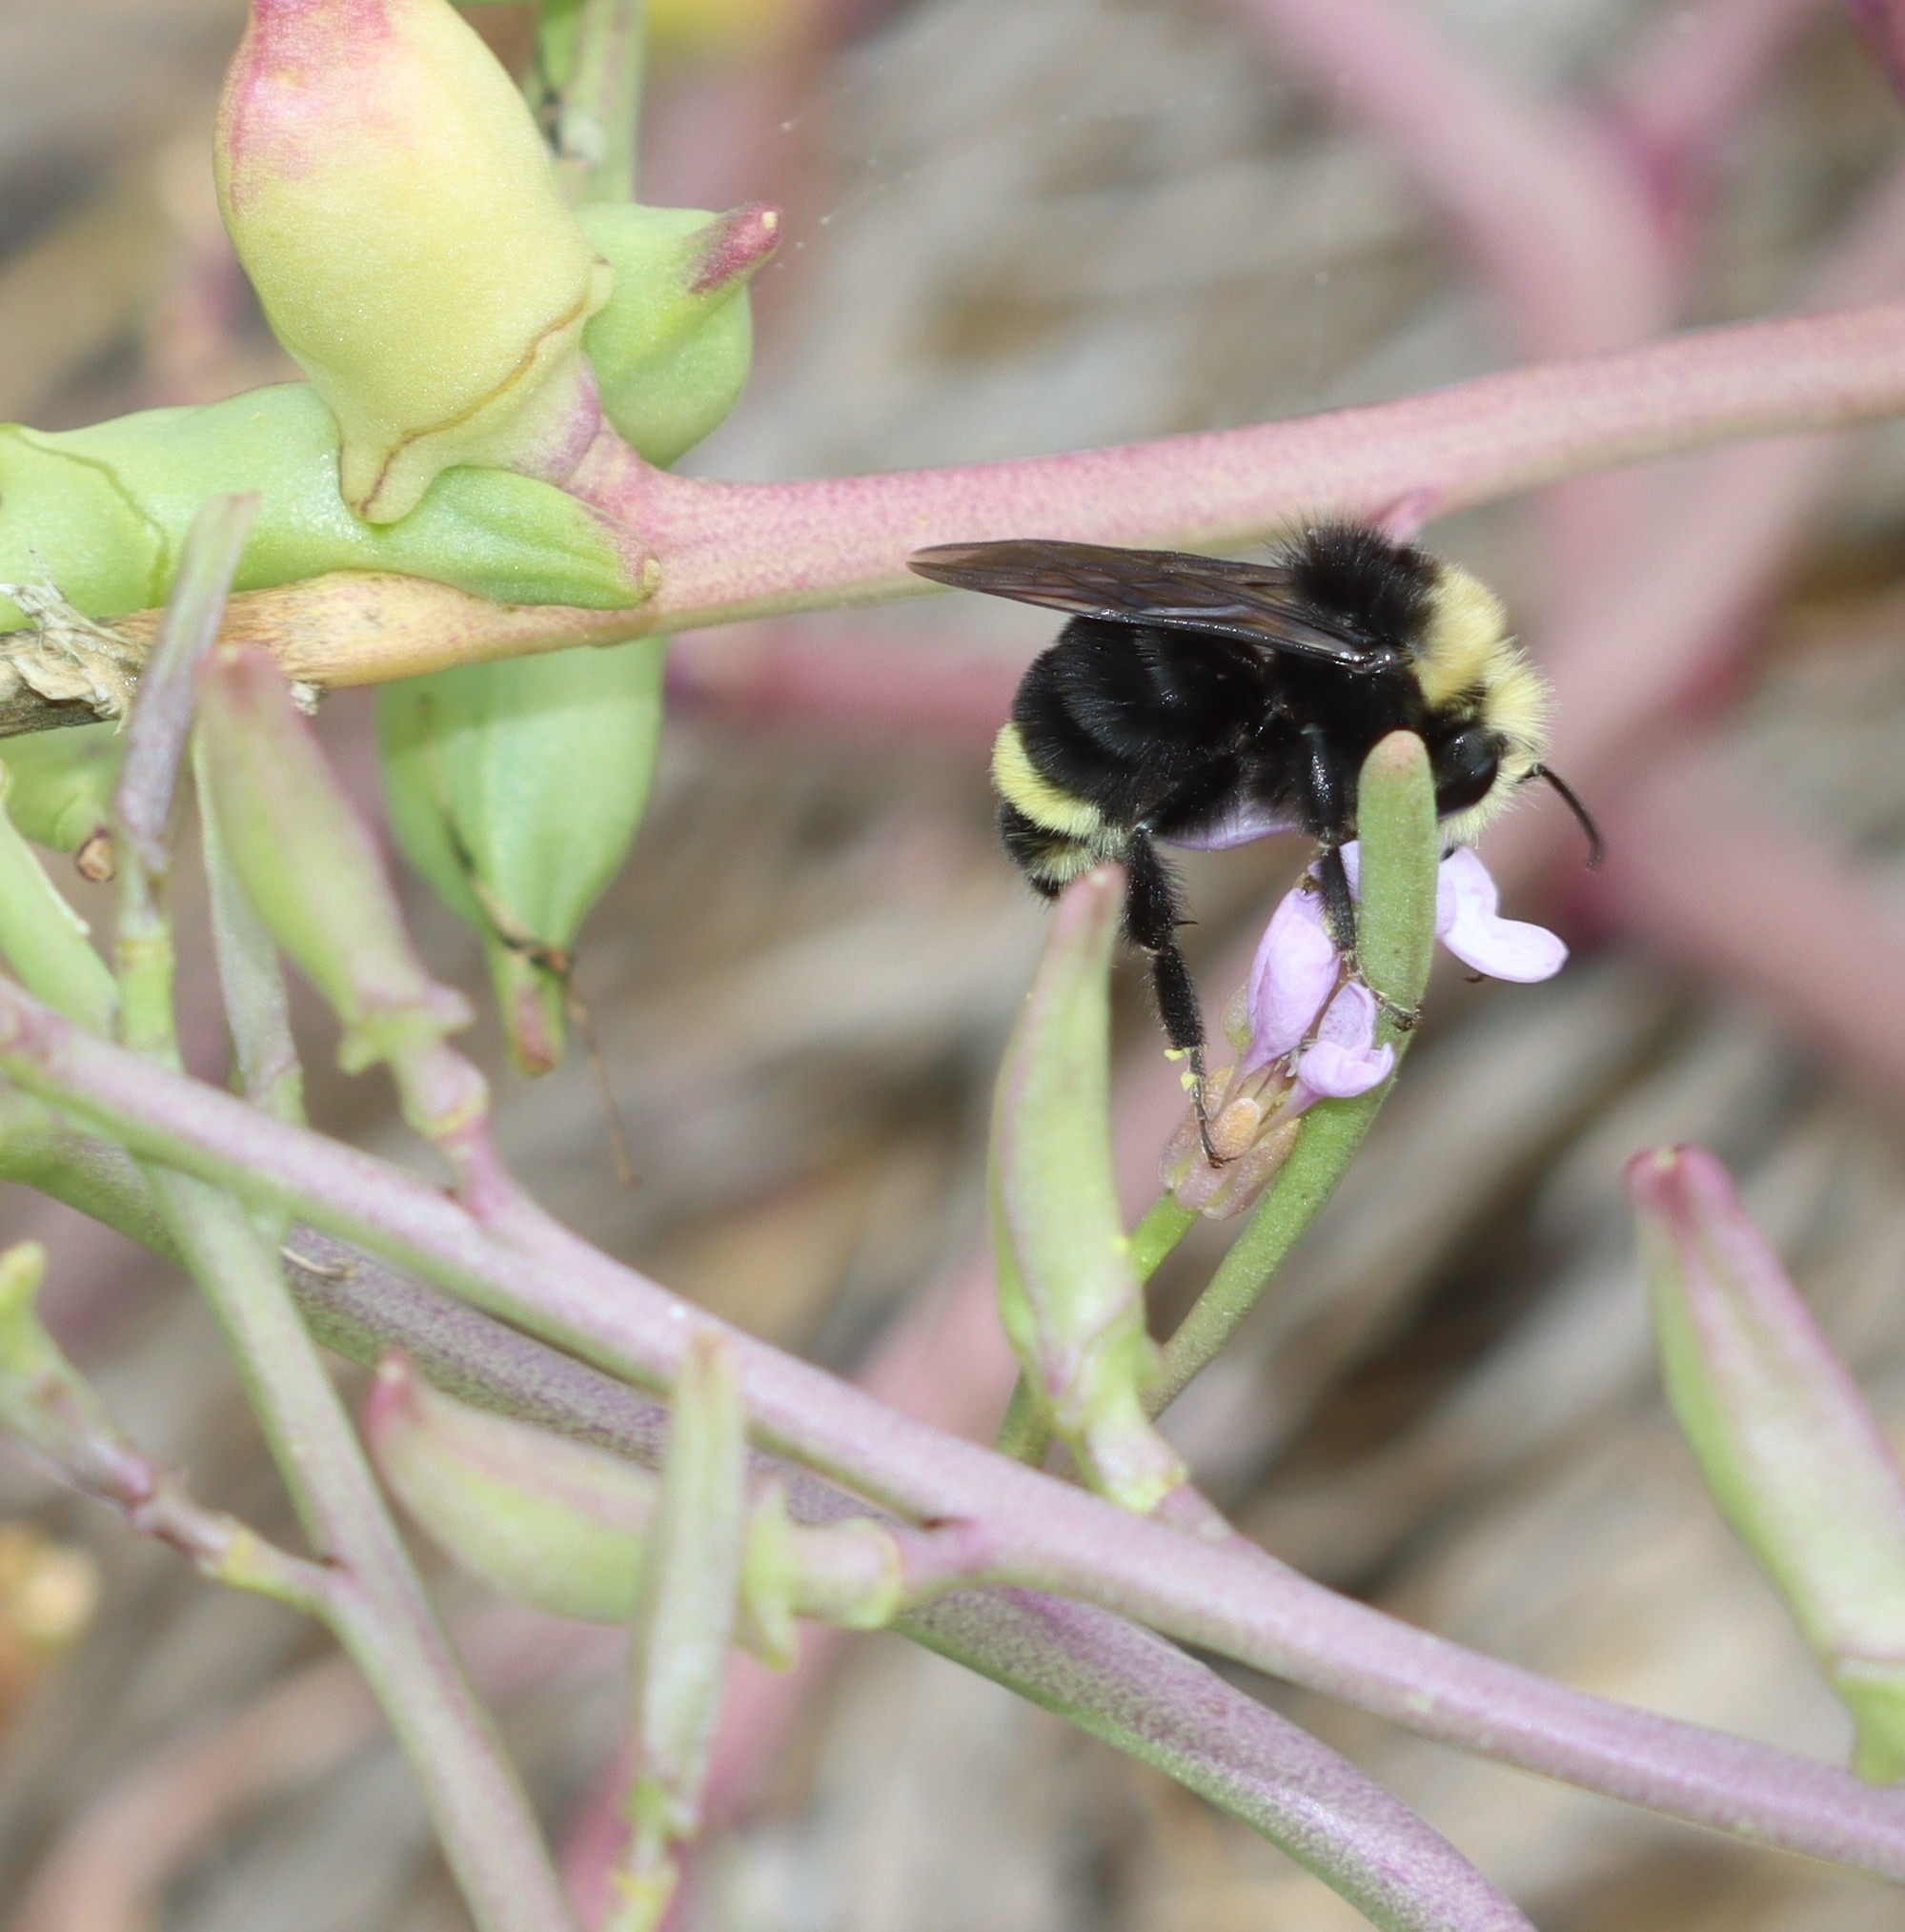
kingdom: Animalia
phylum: Arthropoda
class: Insecta
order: Hymenoptera
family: Apidae
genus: Bombus
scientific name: Bombus vosnesenskii
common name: Vosnesensky bumble bee
